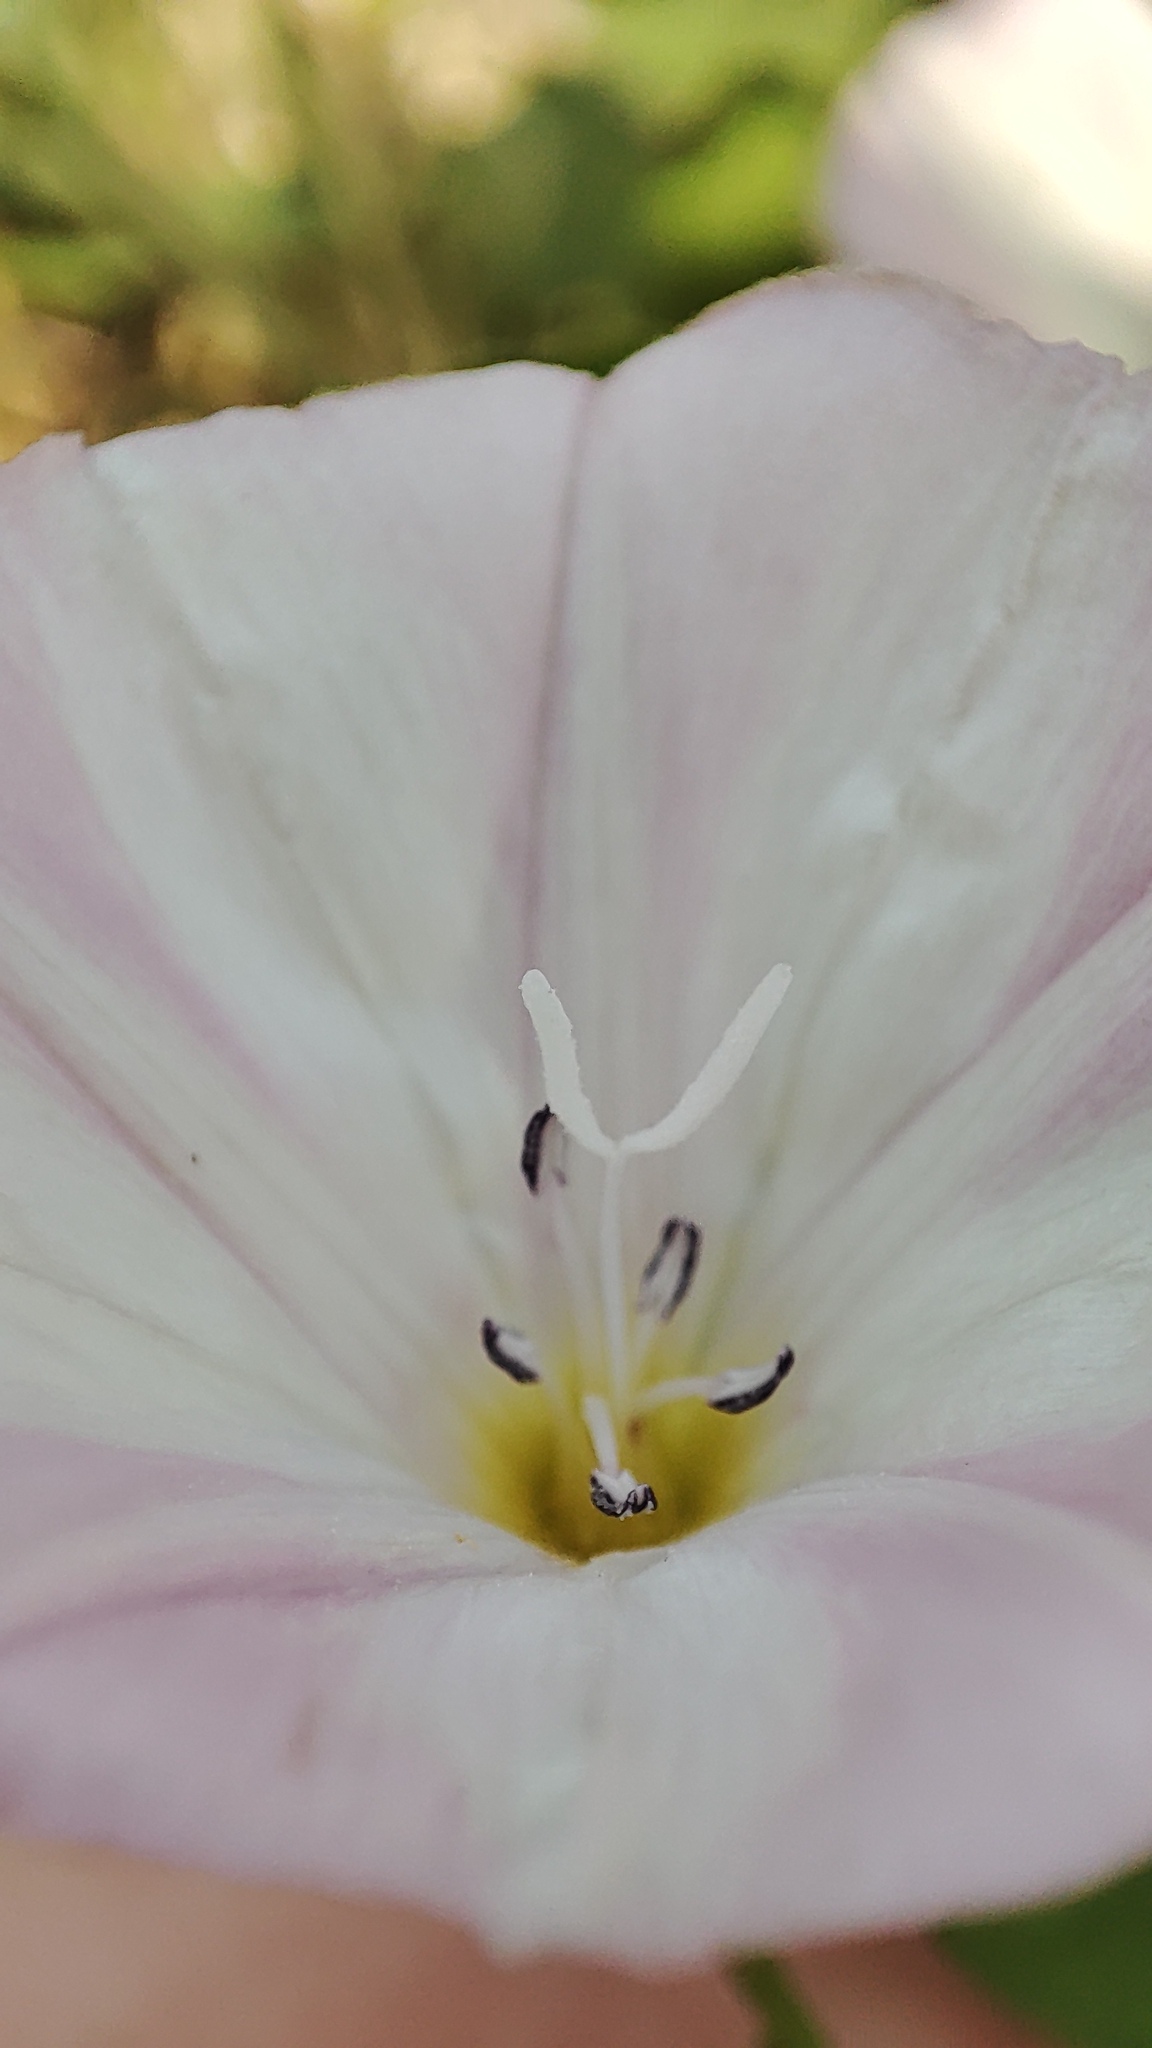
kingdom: Plantae
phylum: Tracheophyta
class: Magnoliopsida
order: Solanales
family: Convolvulaceae
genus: Convolvulus
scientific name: Convolvulus arvensis
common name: Field bindweed
